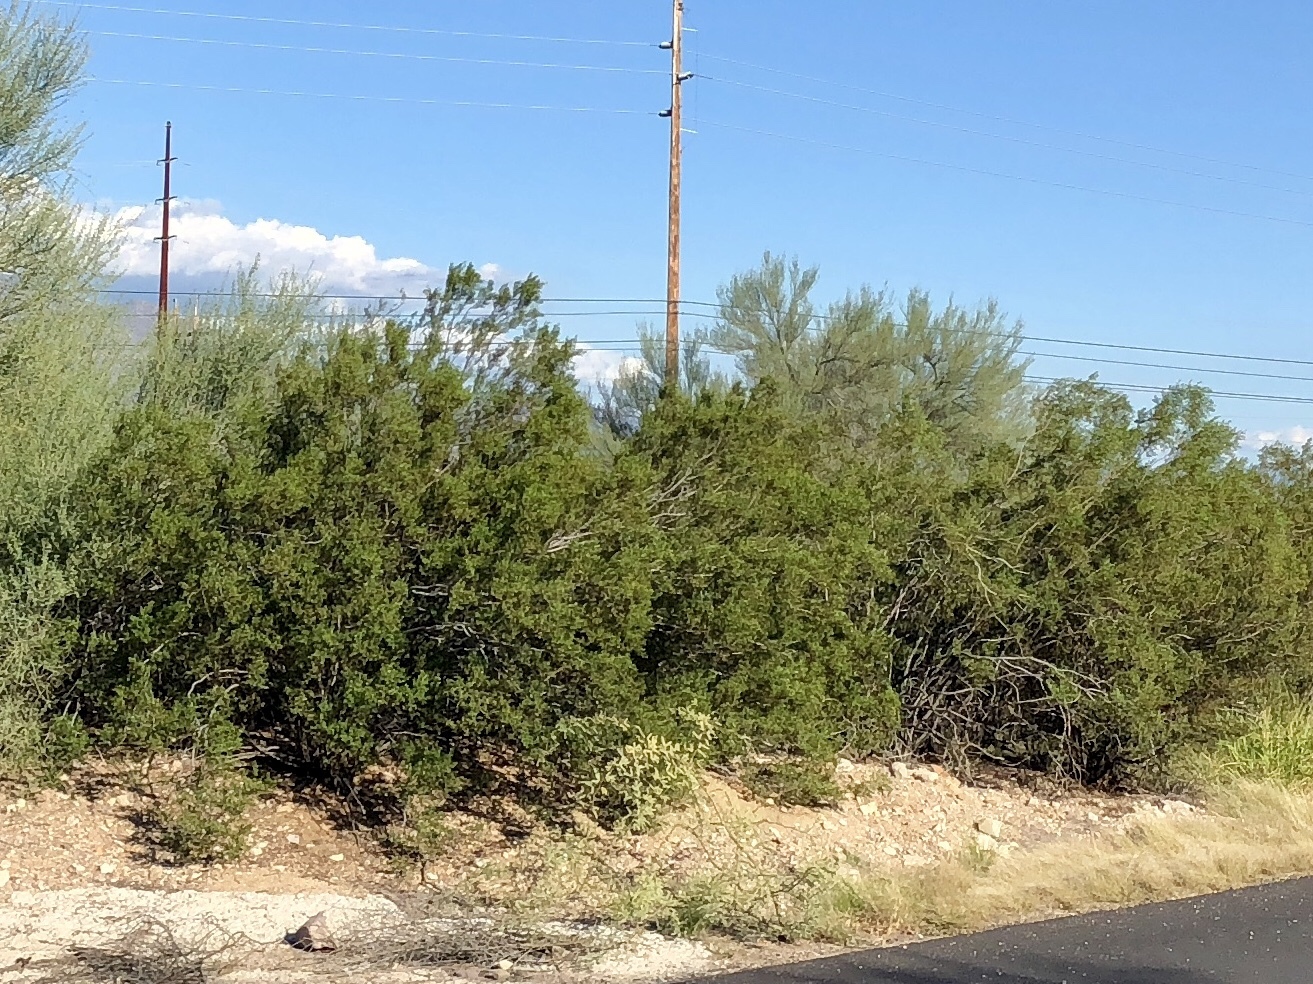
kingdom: Plantae
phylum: Tracheophyta
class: Magnoliopsida
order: Zygophyllales
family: Zygophyllaceae
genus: Larrea
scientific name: Larrea tridentata
